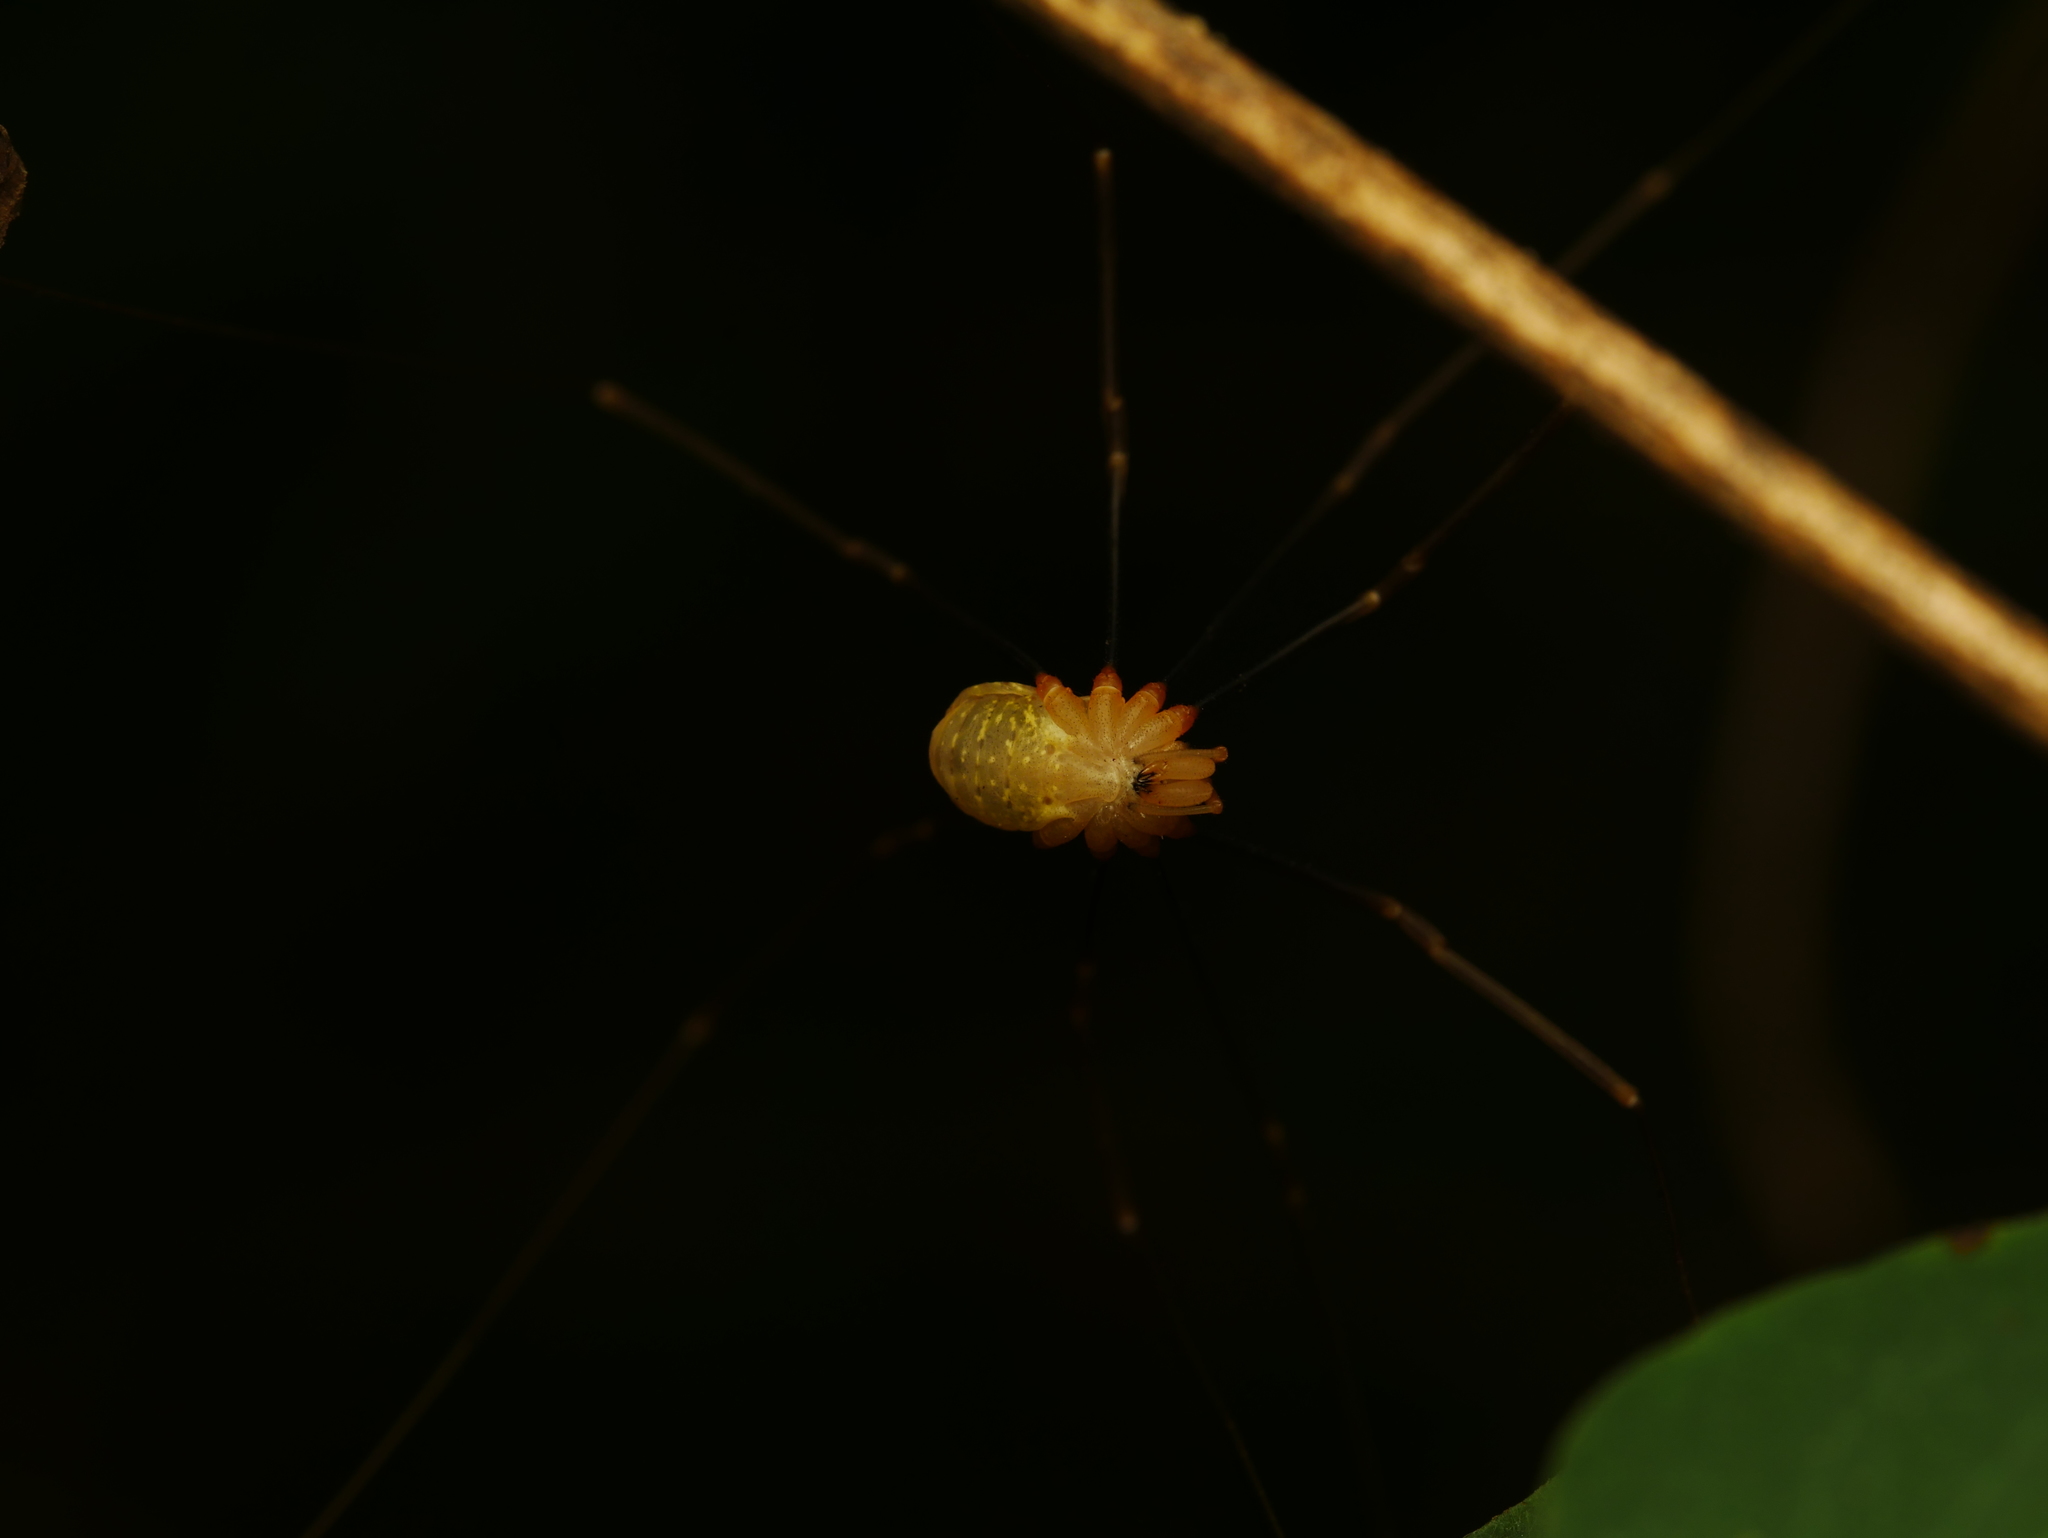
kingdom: Animalia
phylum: Arthropoda
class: Arachnida
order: Opiliones
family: Phalangiidae
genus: Opilio
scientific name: Opilio canestrinii
